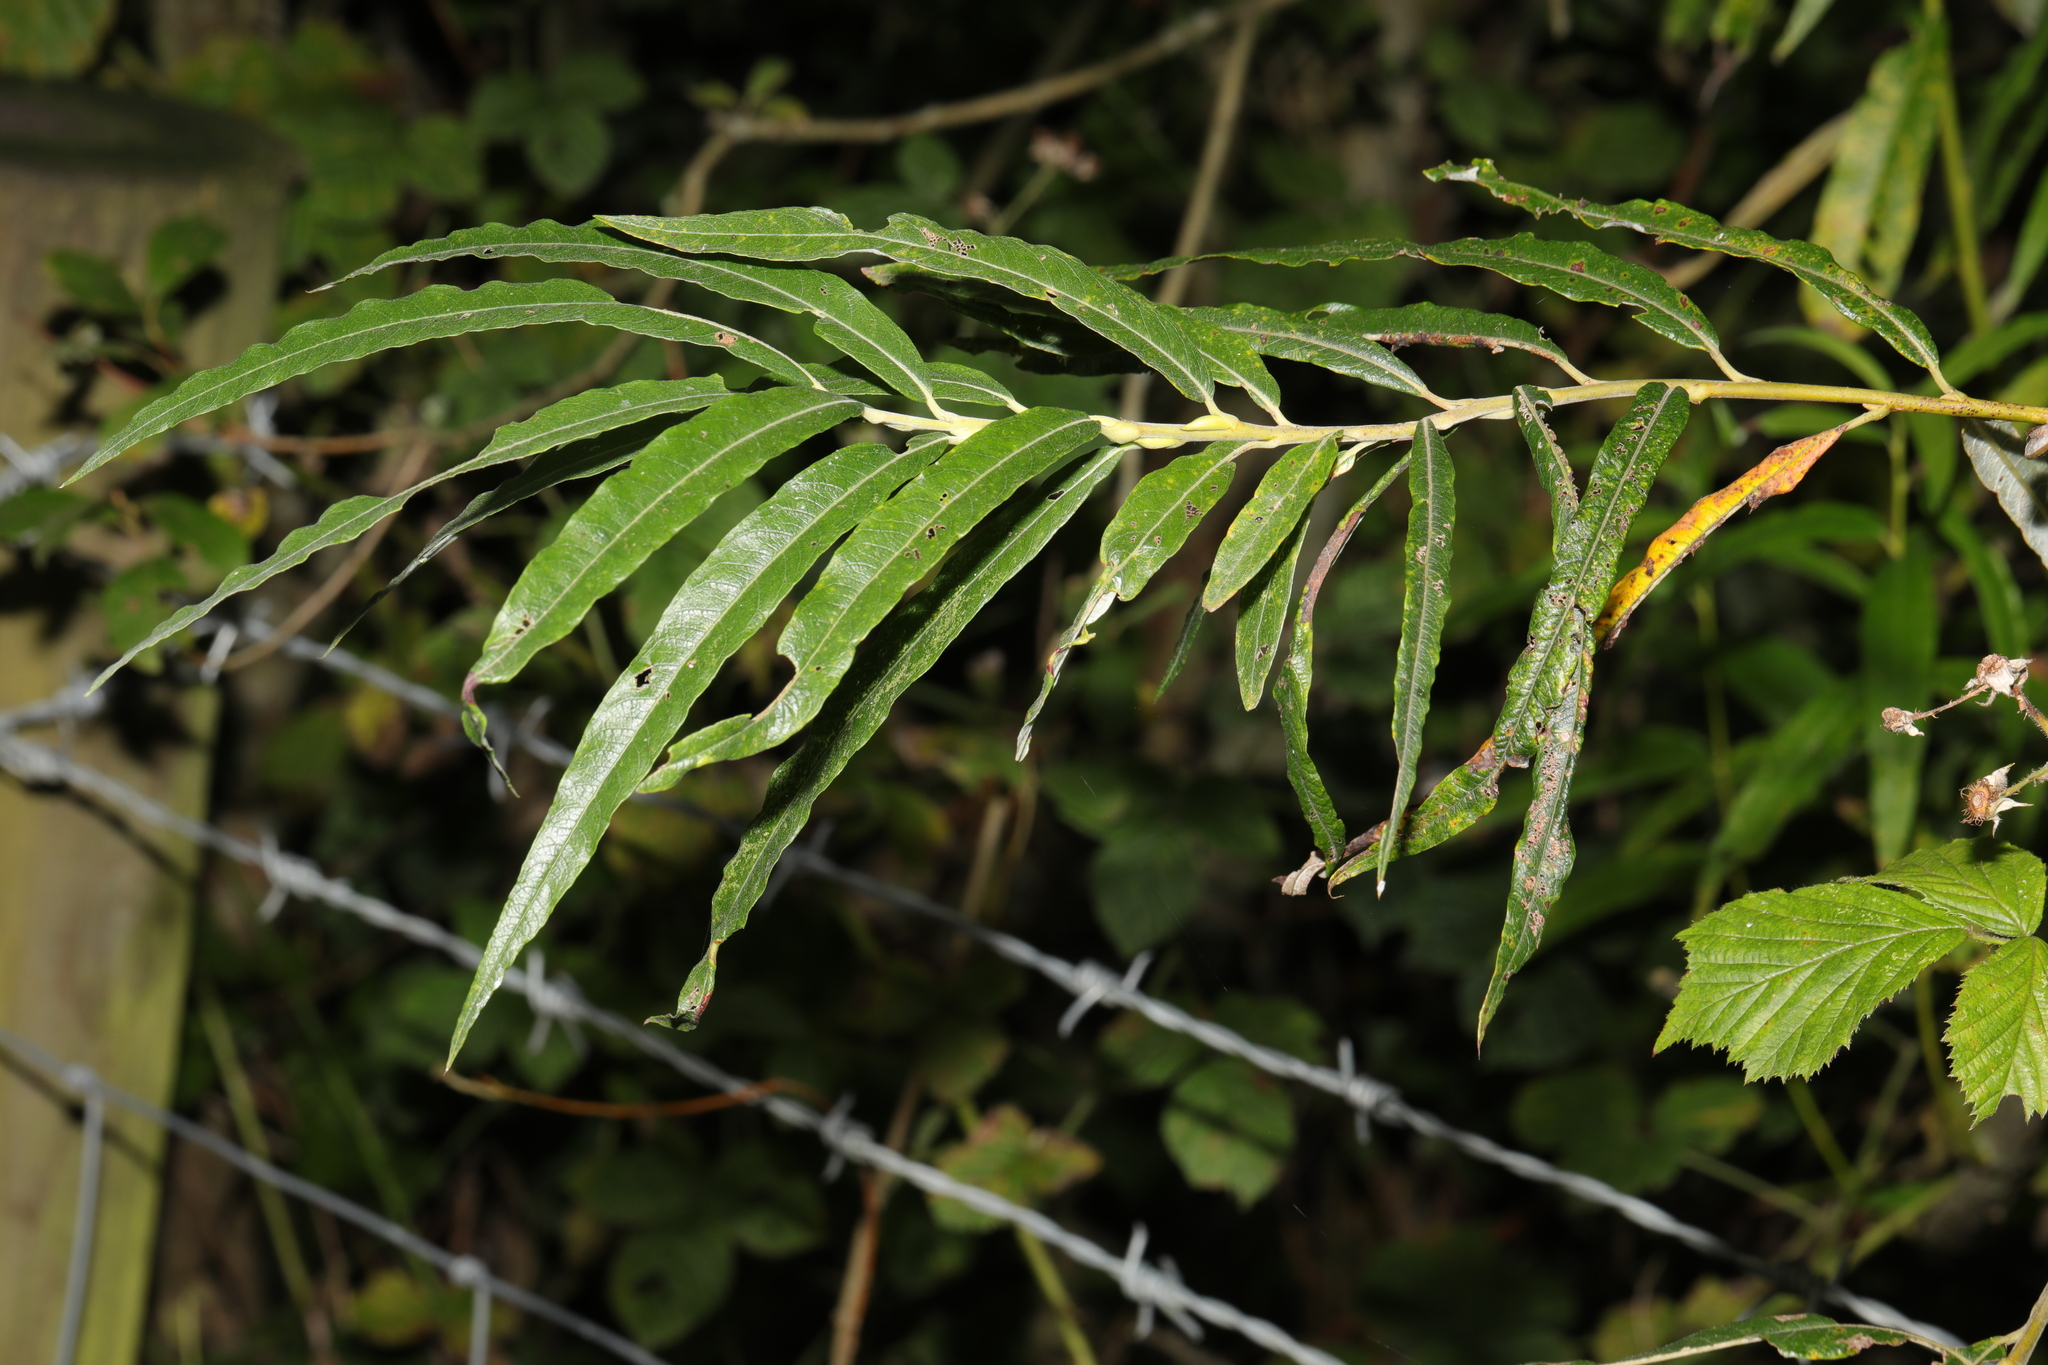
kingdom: Plantae
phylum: Tracheophyta
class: Magnoliopsida
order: Malpighiales
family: Salicaceae
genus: Salix
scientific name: Salix viminalis
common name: Osier
